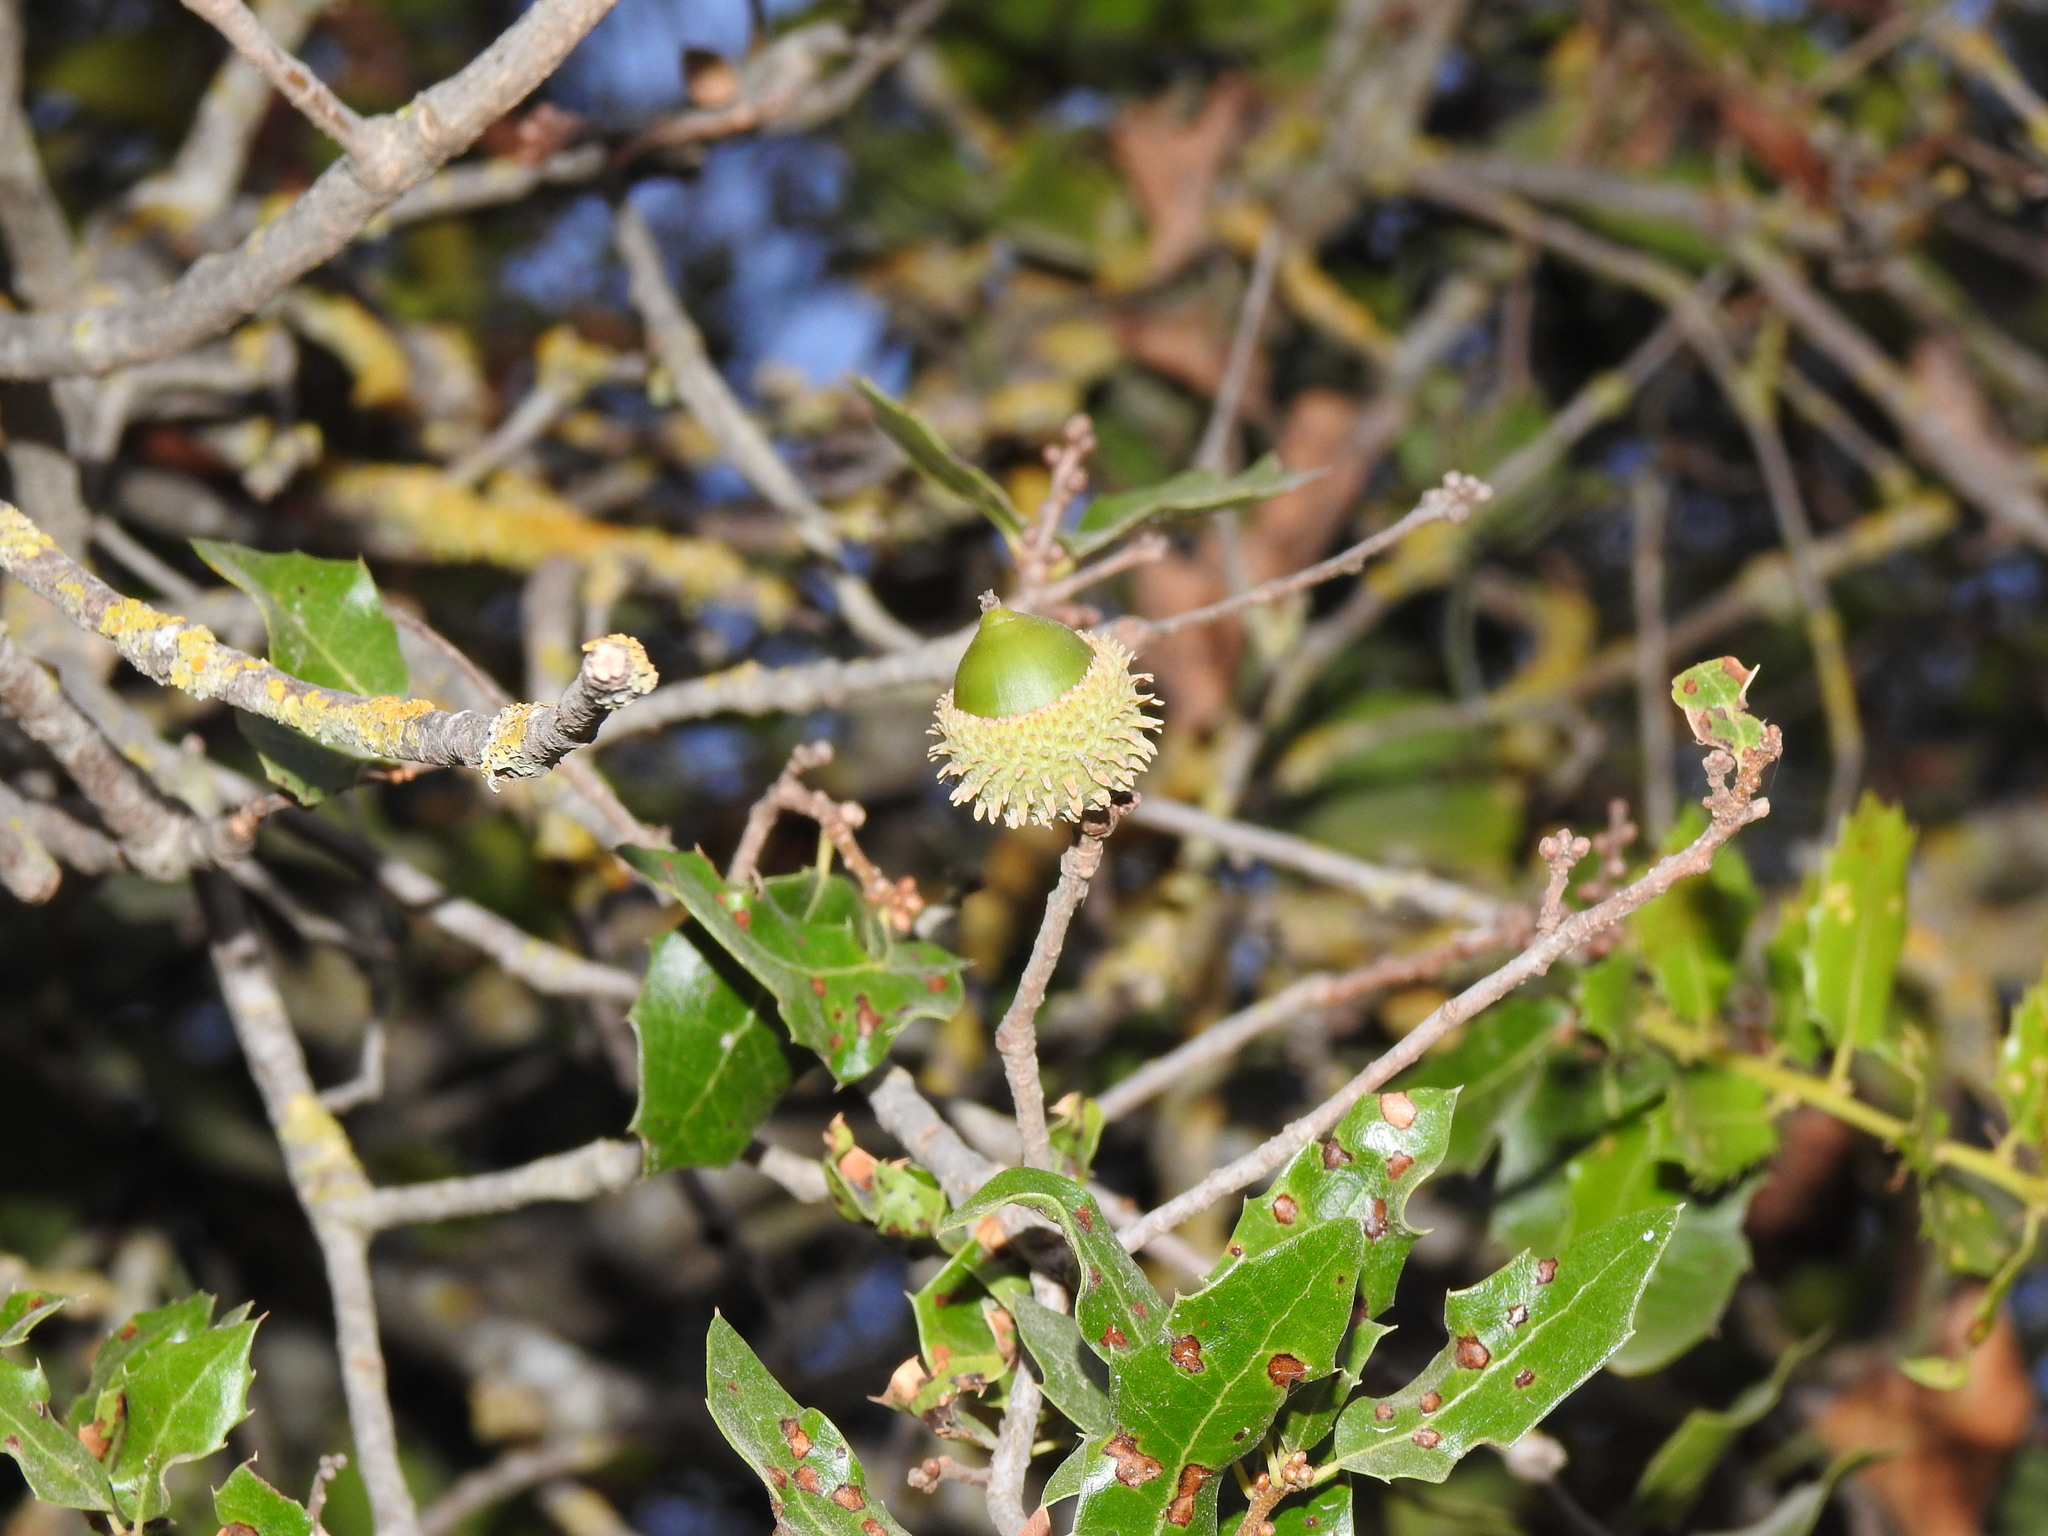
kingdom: Plantae
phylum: Tracheophyta
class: Magnoliopsida
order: Fagales
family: Fagaceae
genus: Quercus
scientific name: Quercus coccifera
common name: Kermes oak
